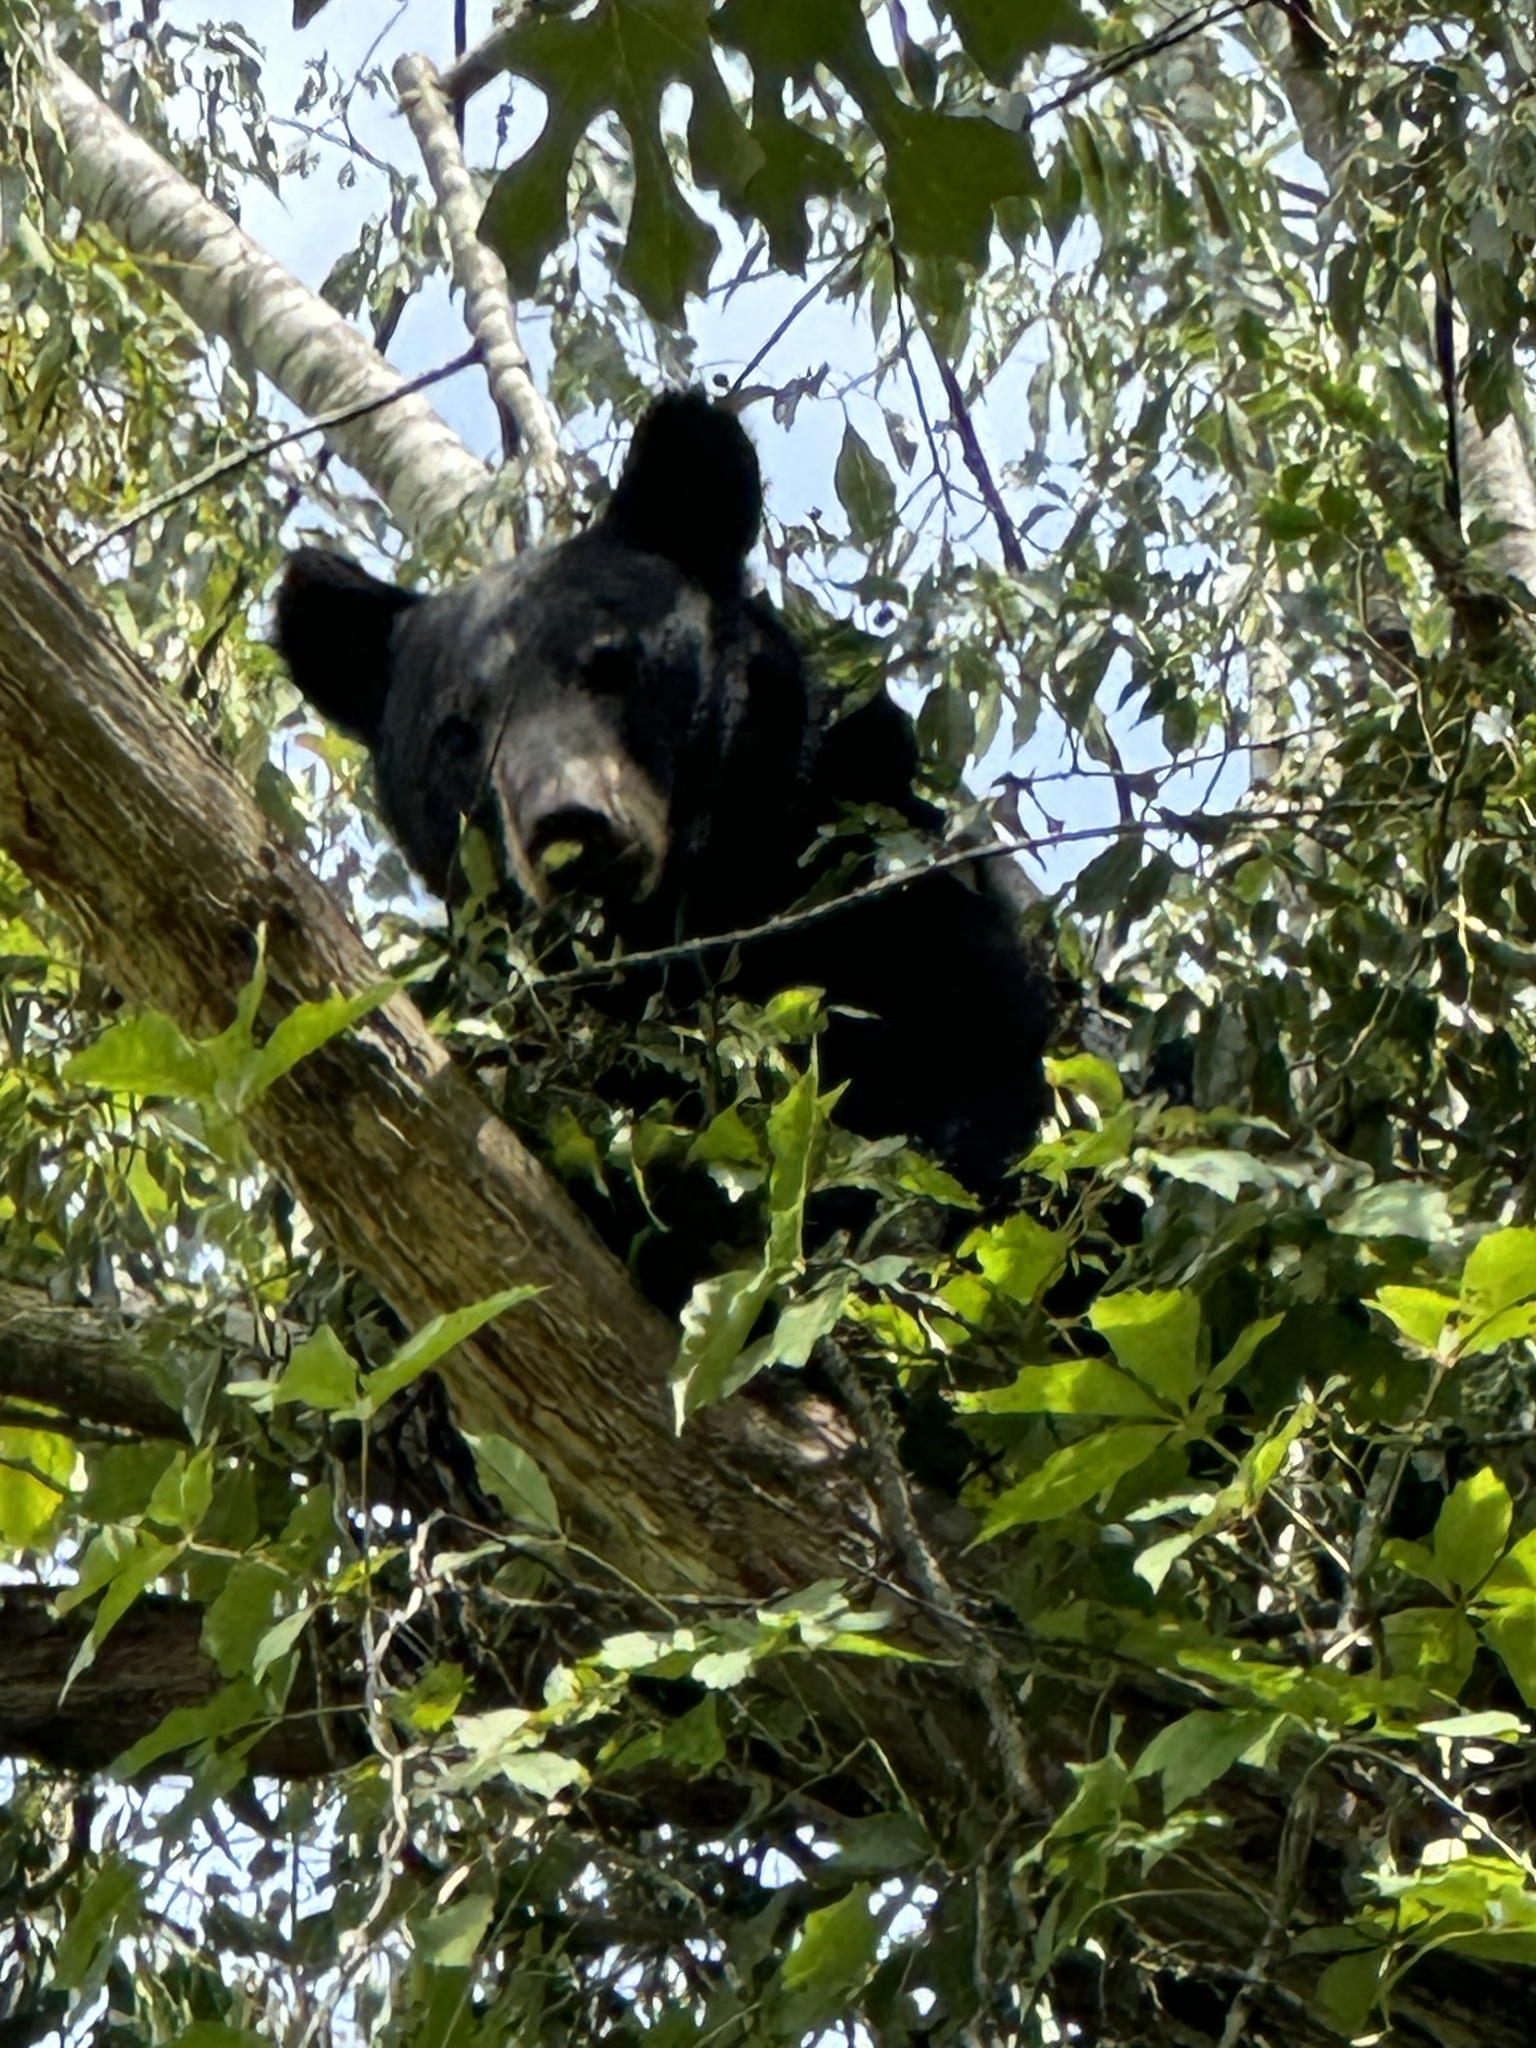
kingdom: Animalia
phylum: Chordata
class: Mammalia
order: Carnivora
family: Ursidae
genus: Ursus
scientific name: Ursus americanus
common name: American black bear
